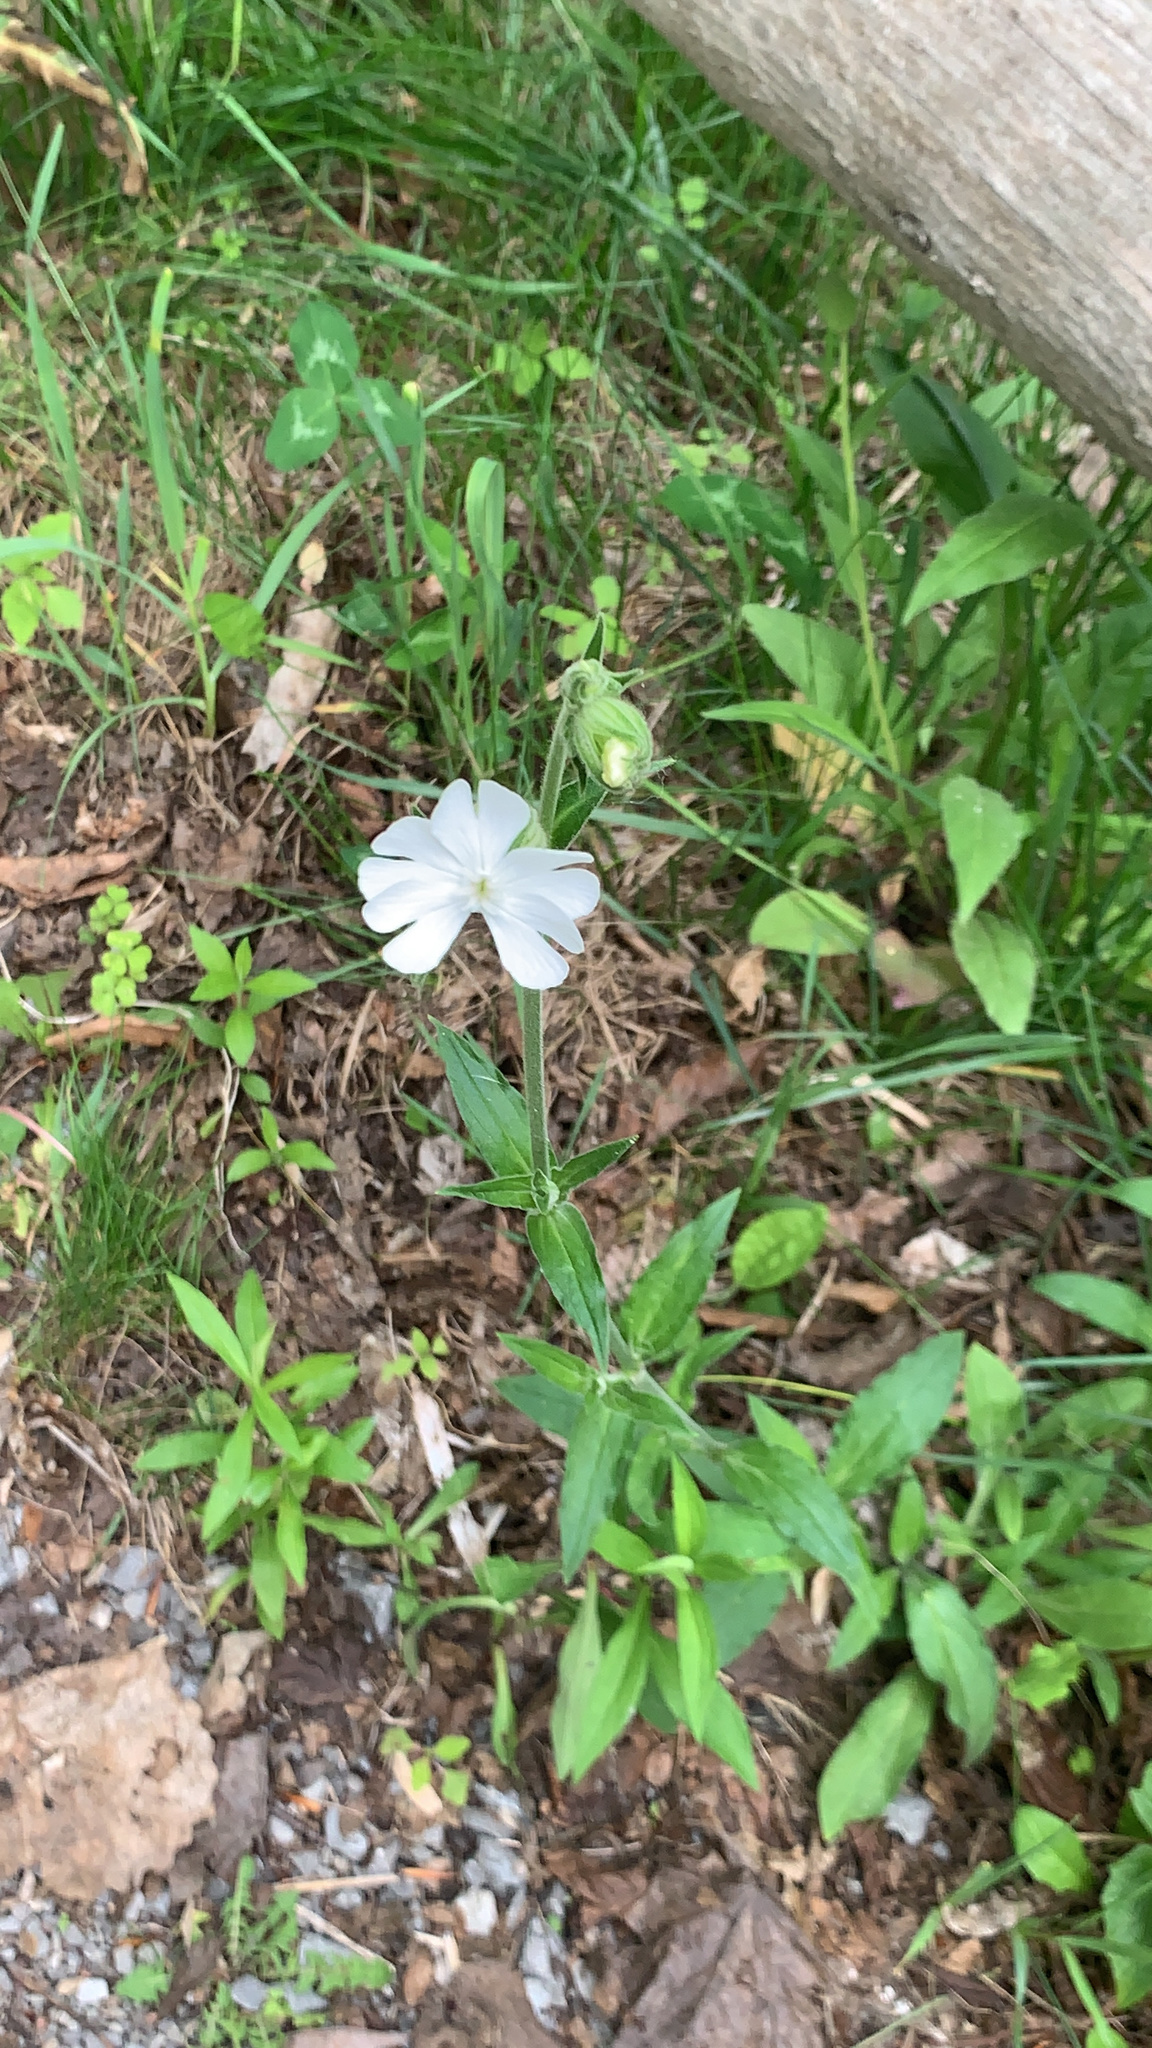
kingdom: Plantae
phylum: Tracheophyta
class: Magnoliopsida
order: Caryophyllales
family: Caryophyllaceae
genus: Silene
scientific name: Silene latifolia
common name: White campion
